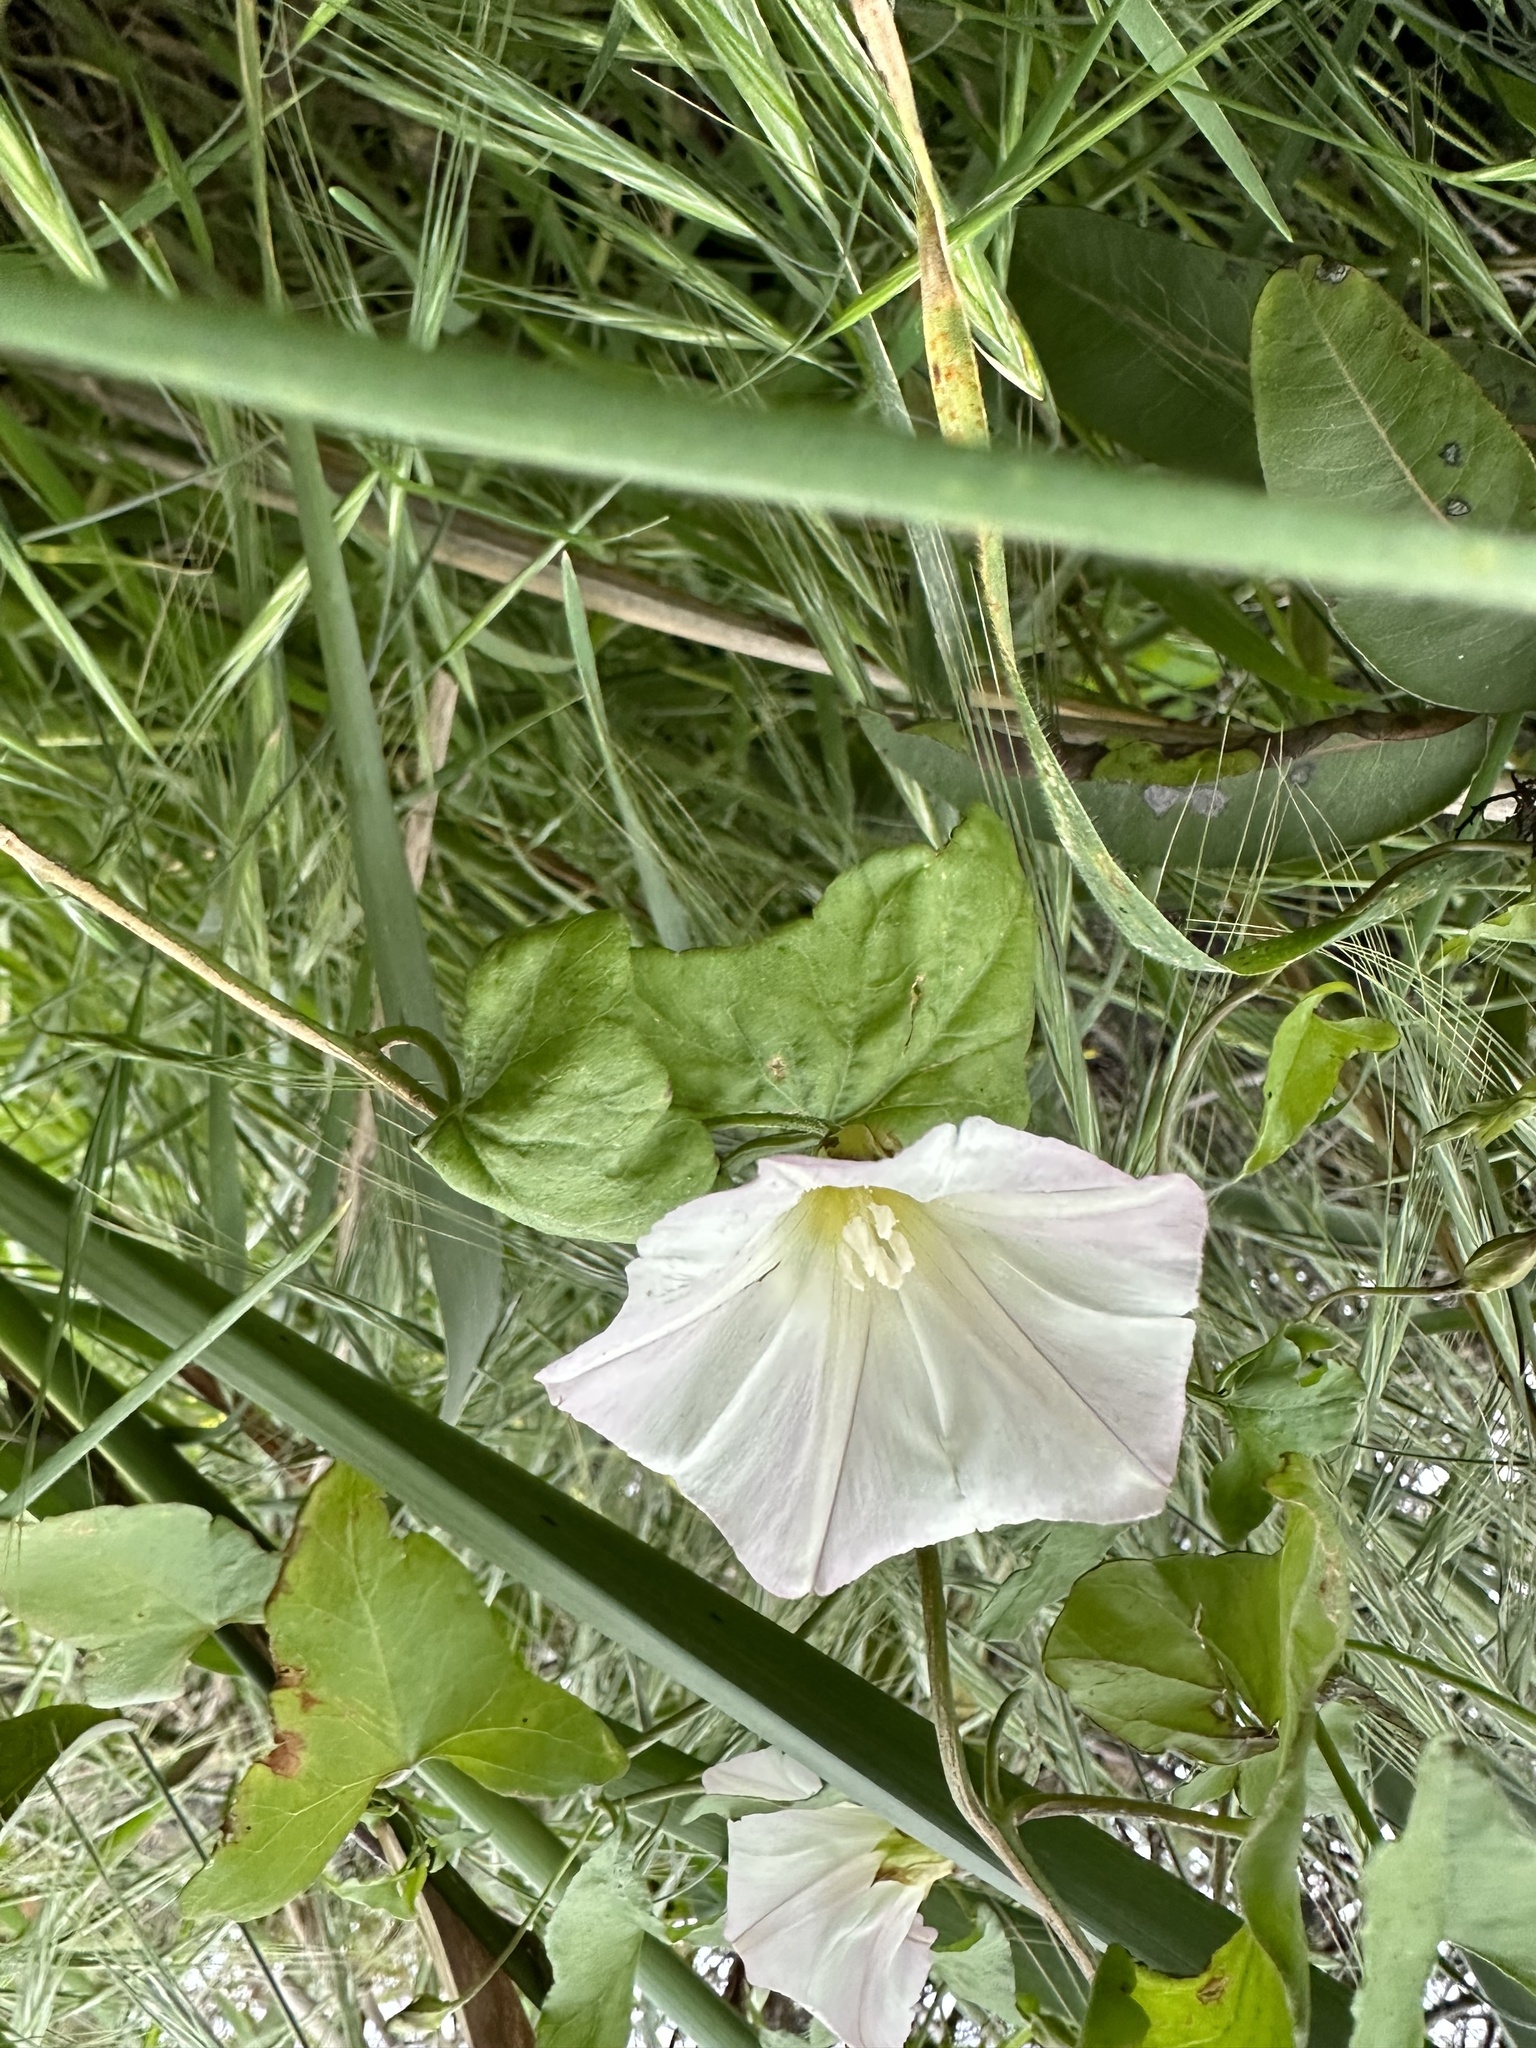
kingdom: Plantae
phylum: Tracheophyta
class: Magnoliopsida
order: Solanales
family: Convolvulaceae
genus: Calystegia
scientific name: Calystegia macrostegia
